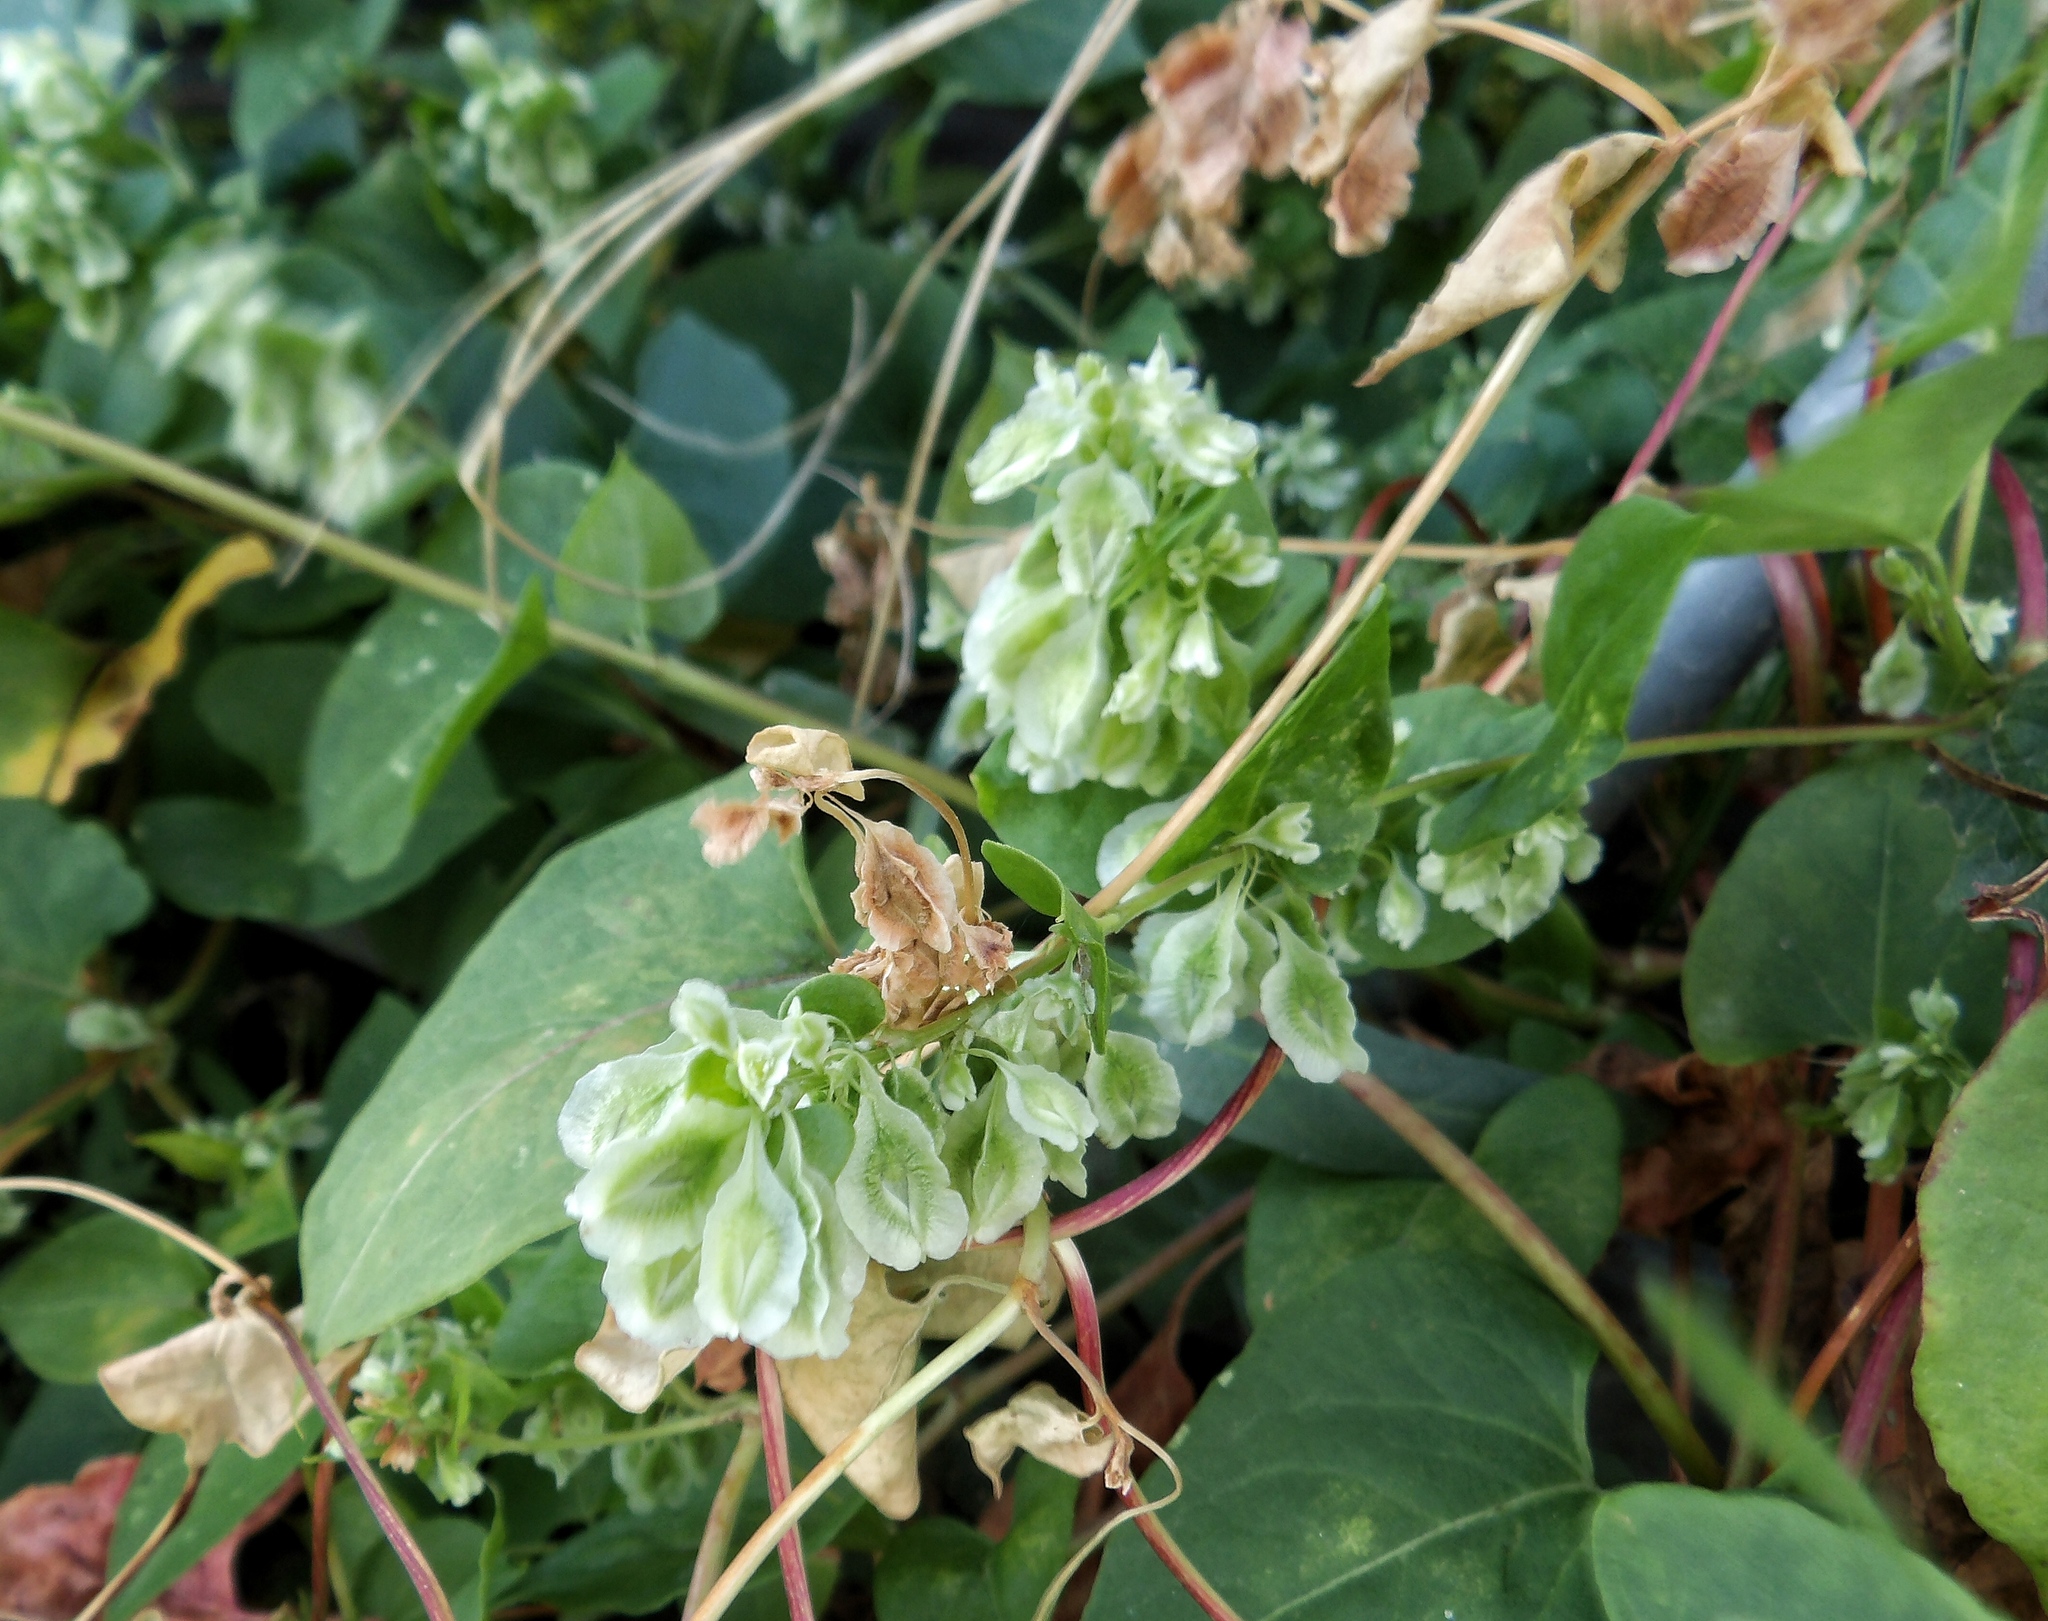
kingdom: Plantae
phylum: Tracheophyta
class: Magnoliopsida
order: Caryophyllales
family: Polygonaceae
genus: Fallopia
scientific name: Fallopia scandens
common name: Climbing false buckwheat
